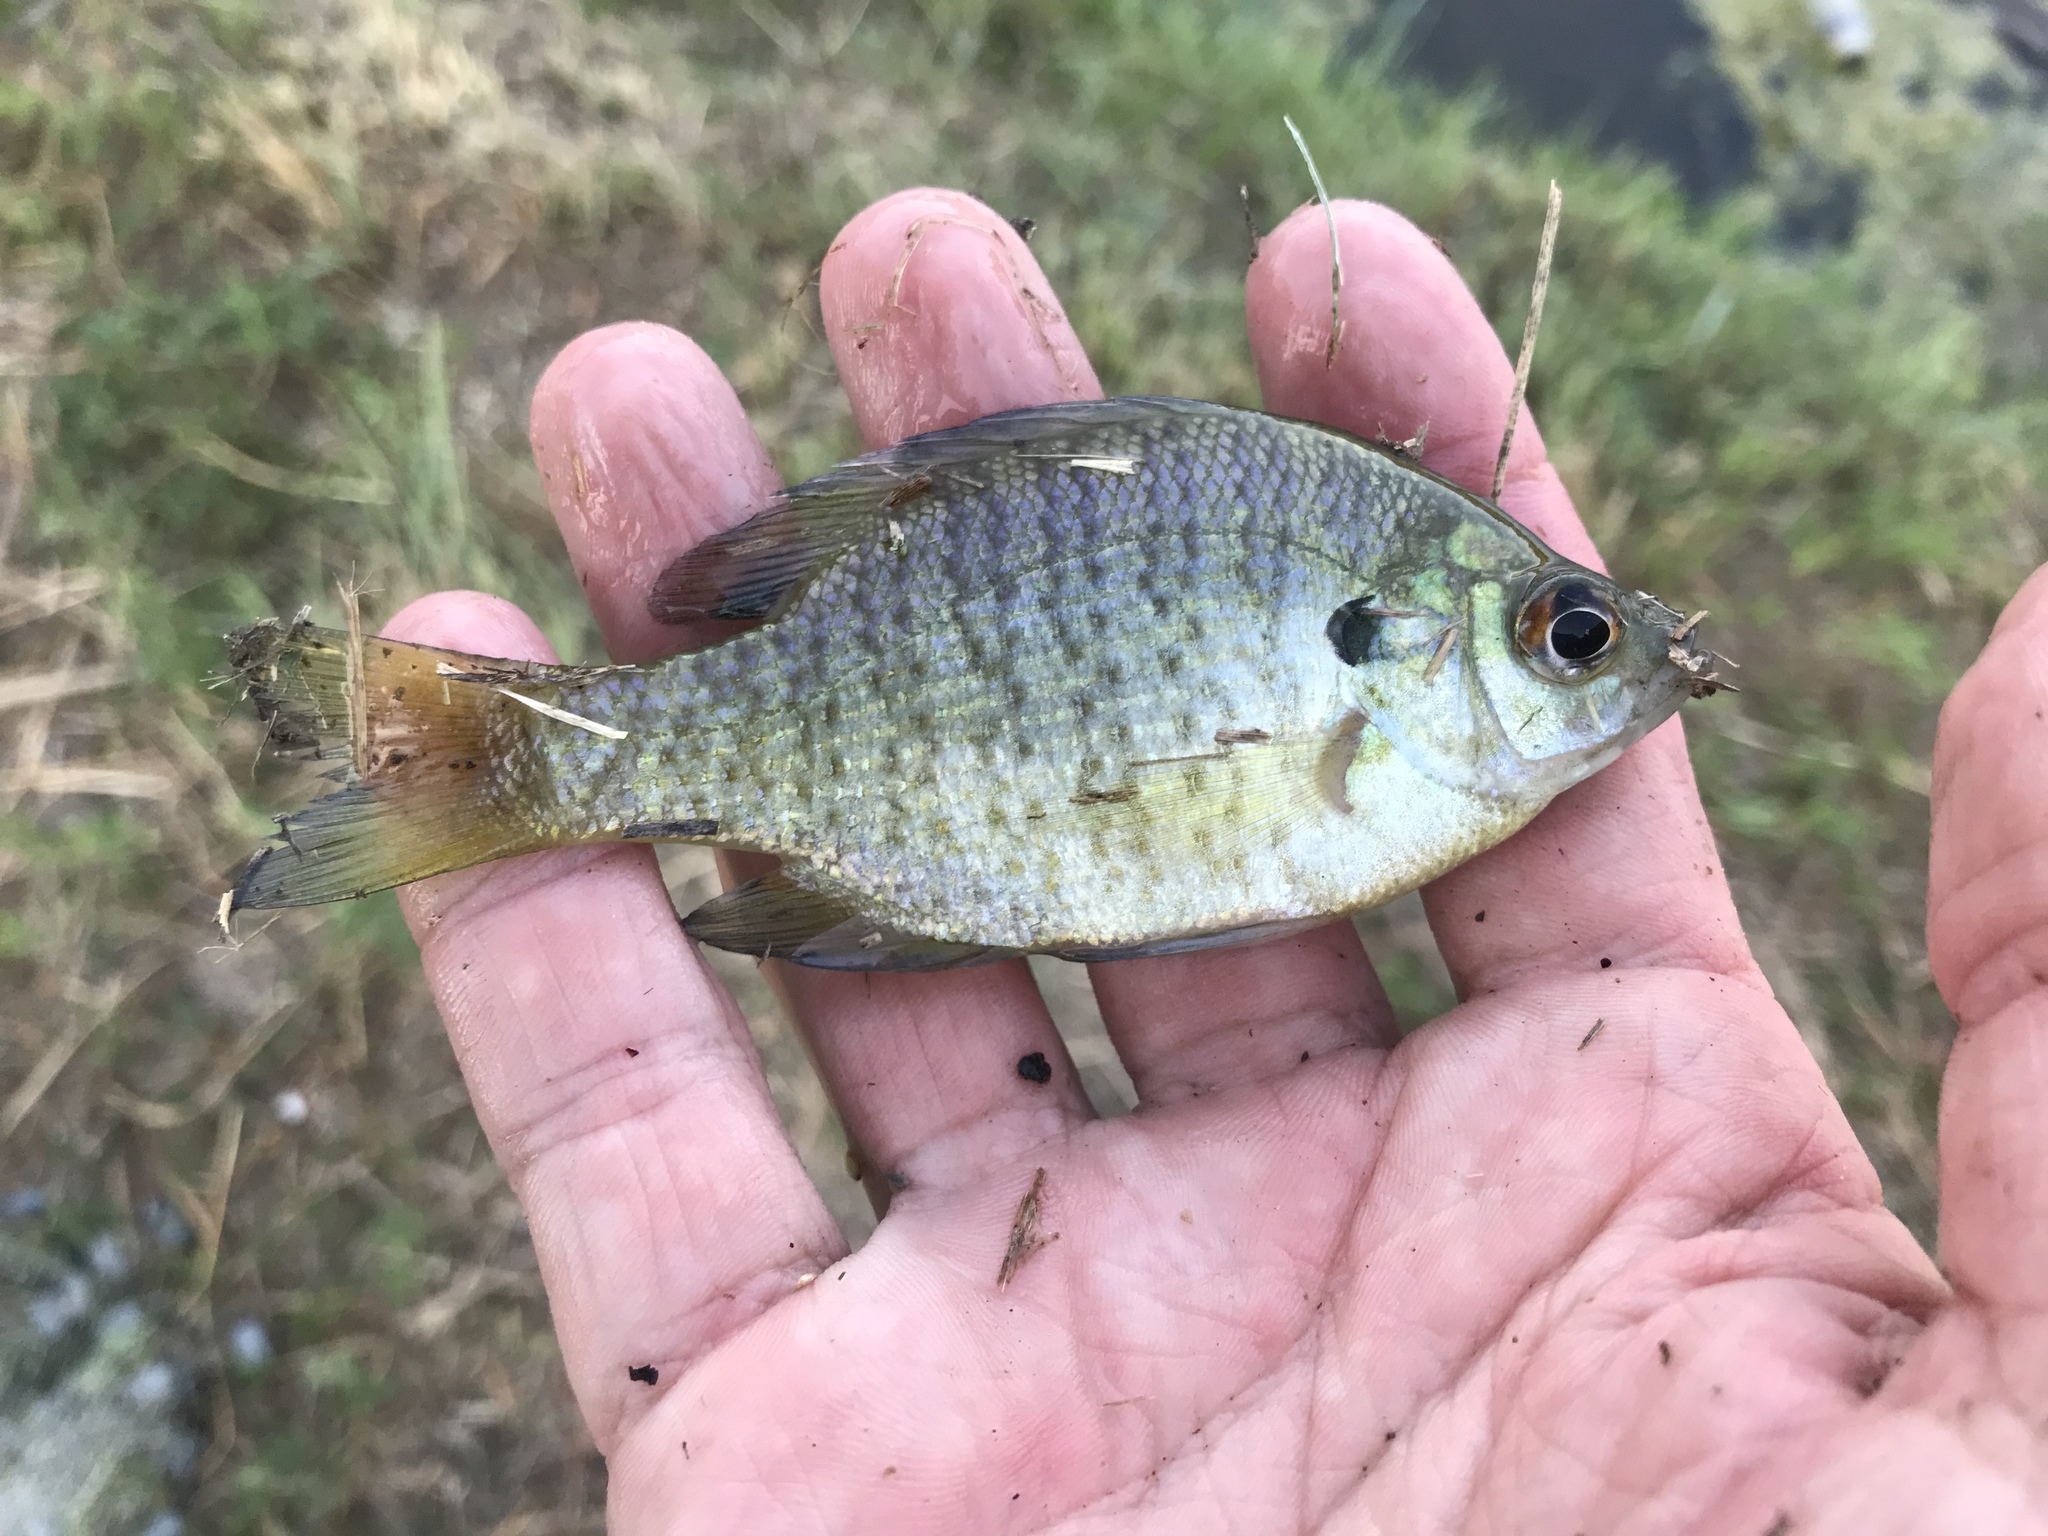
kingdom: Animalia
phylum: Chordata
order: Perciformes
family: Centrarchidae
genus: Lepomis
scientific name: Lepomis macrochirus
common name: Bluegill
